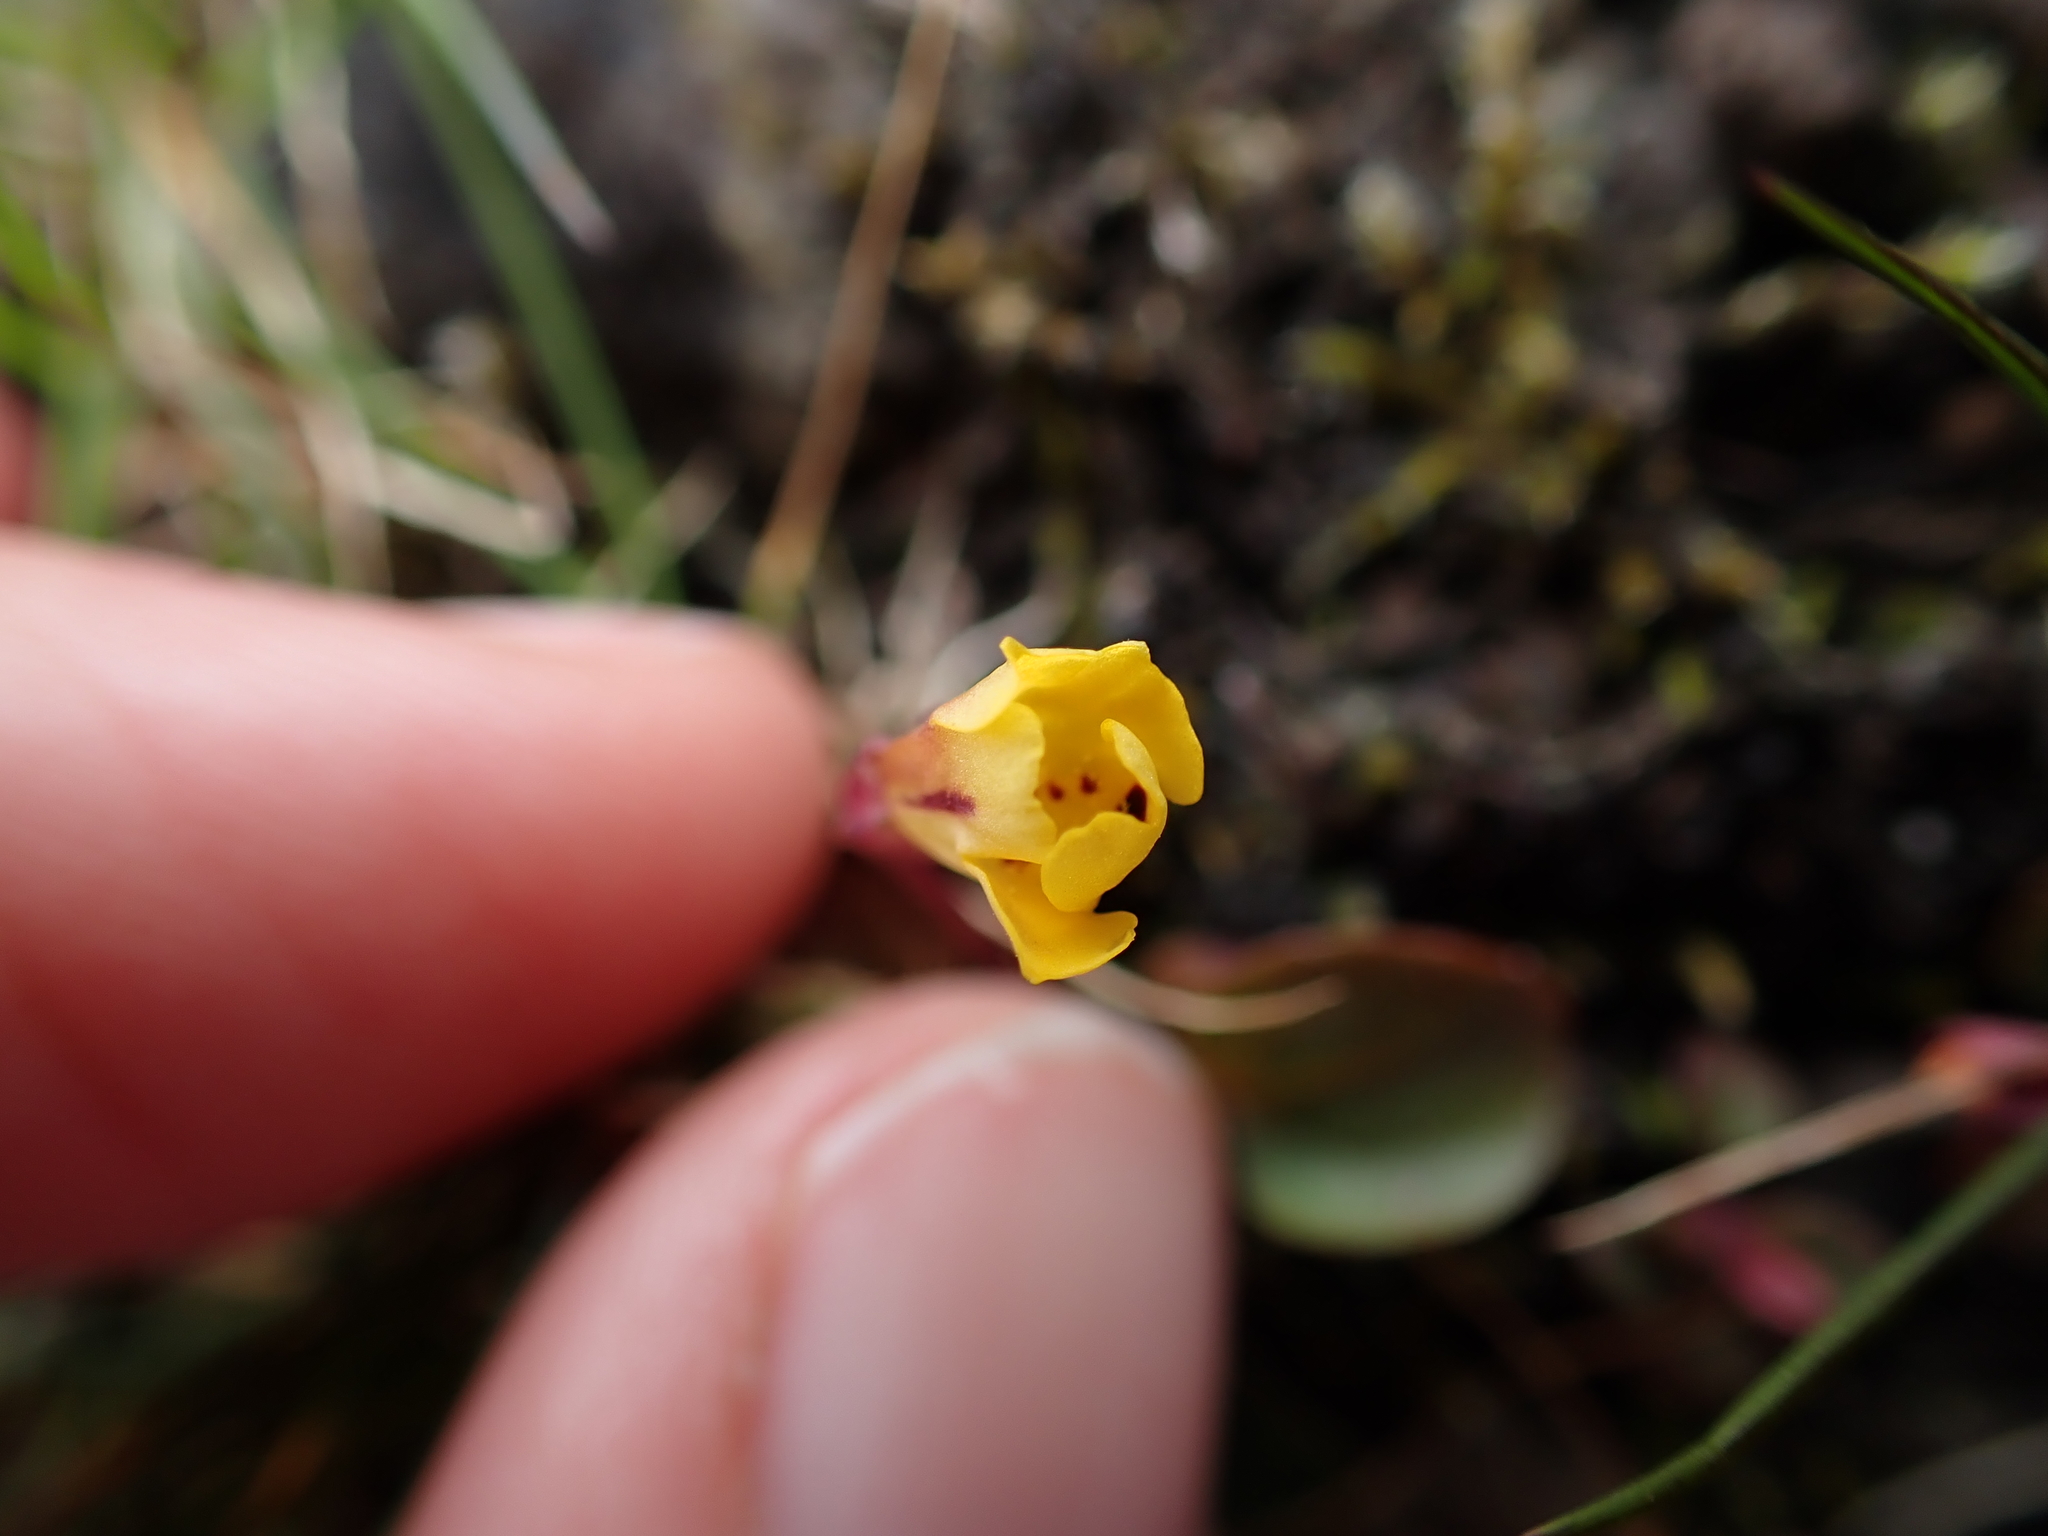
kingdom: Plantae
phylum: Tracheophyta
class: Magnoliopsida
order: Lamiales
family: Phrymaceae
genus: Erythranthe
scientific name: Erythranthe alsinoides
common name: Chickweed monkeyflower
